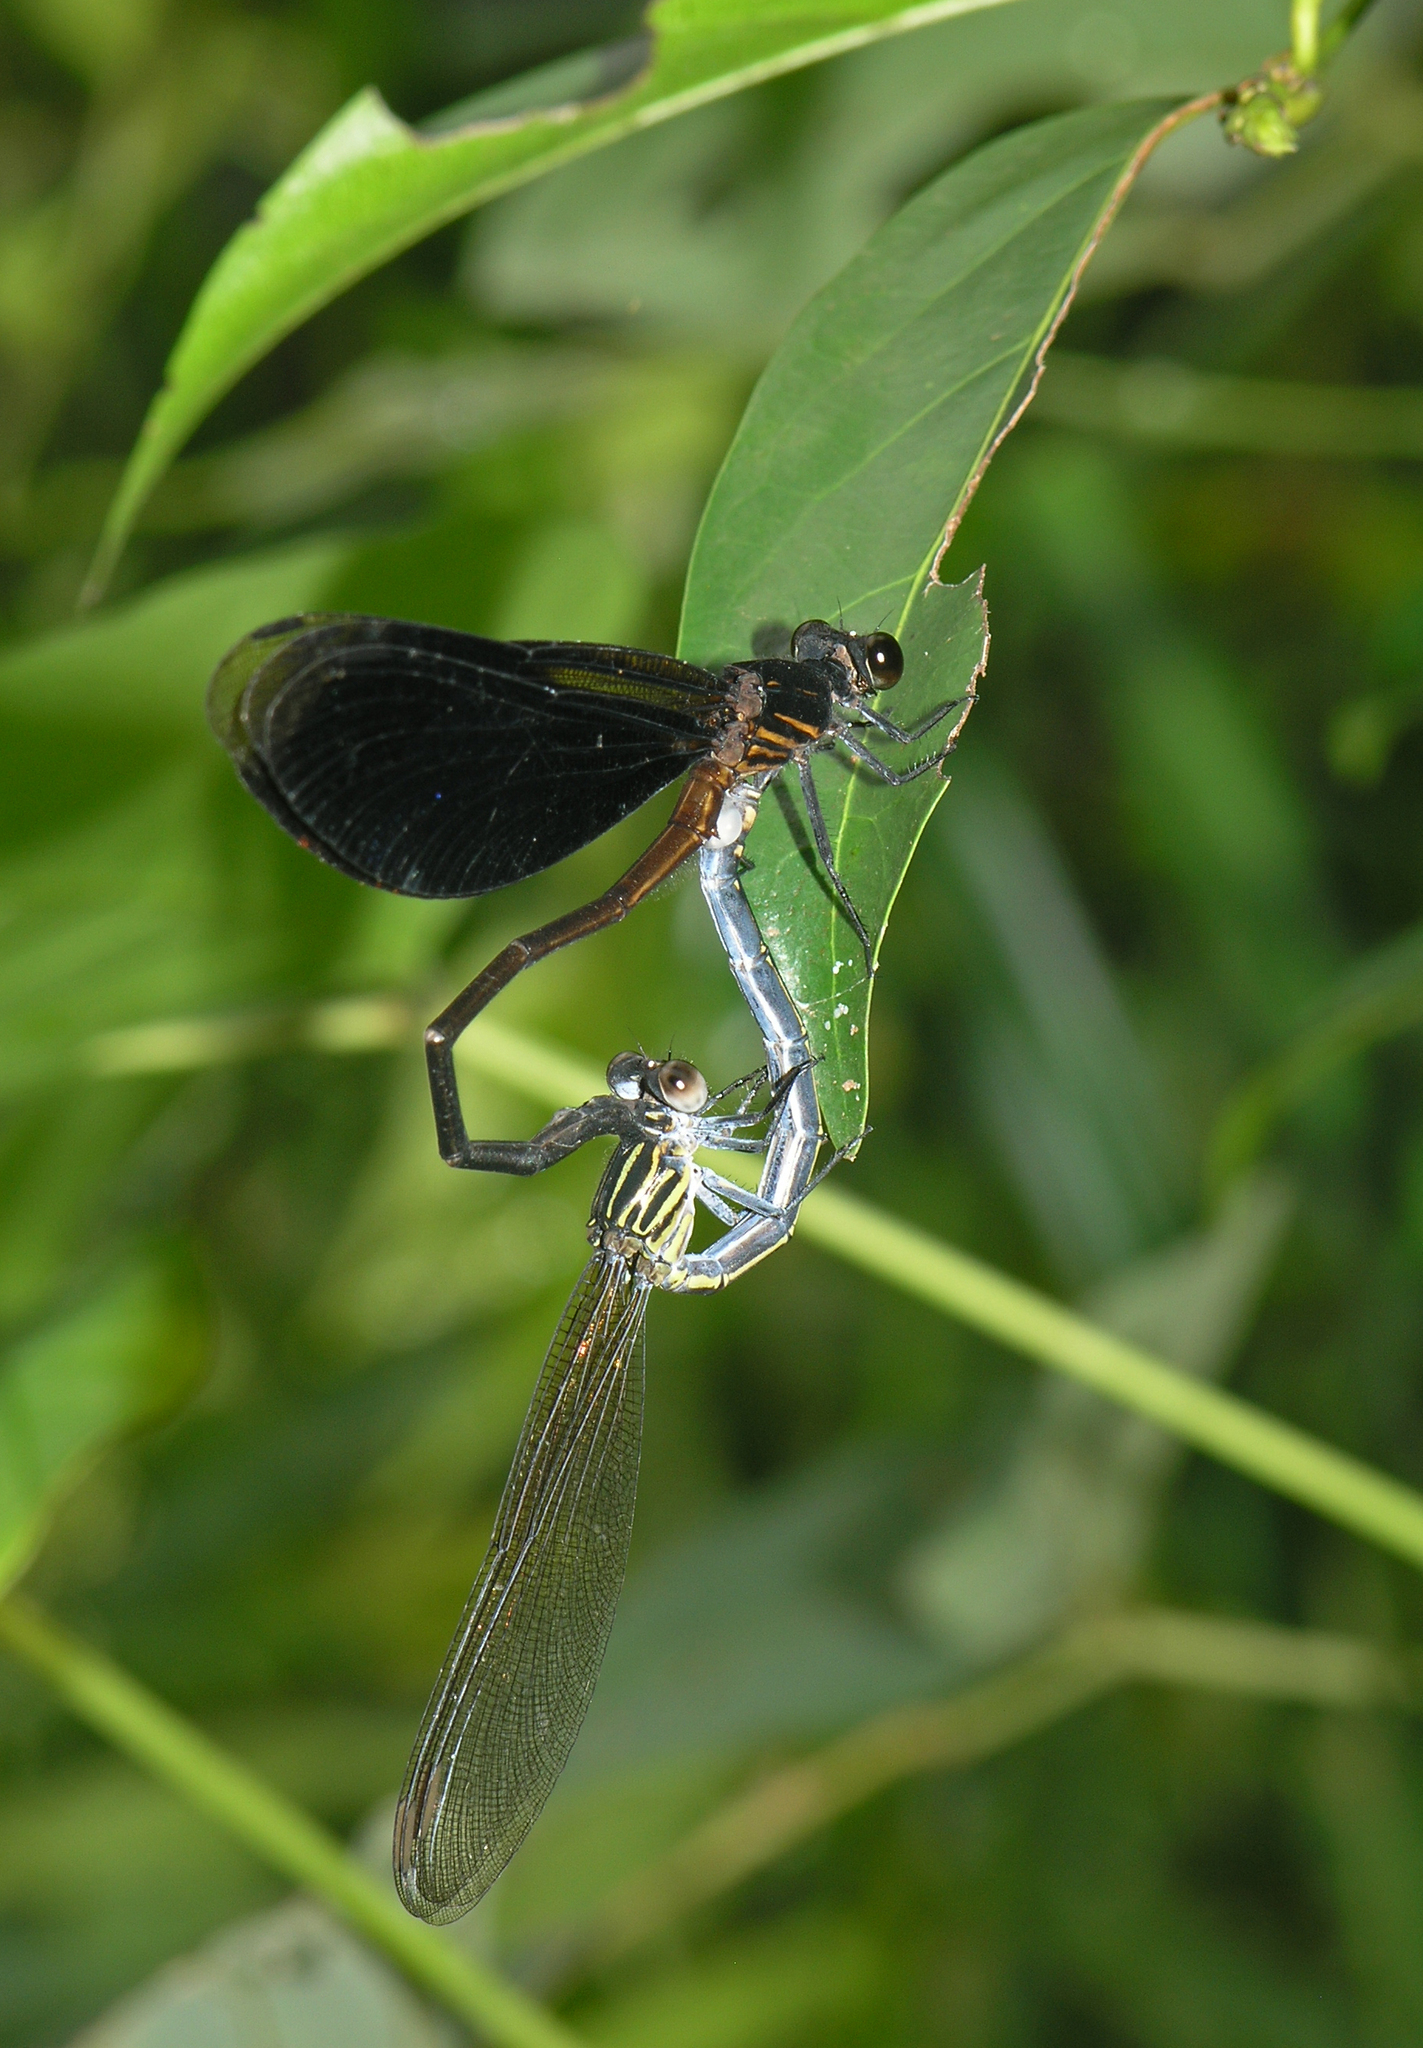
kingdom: Animalia
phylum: Arthropoda
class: Insecta
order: Odonata
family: Euphaeidae
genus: Euphaea
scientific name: Euphaea inouei
